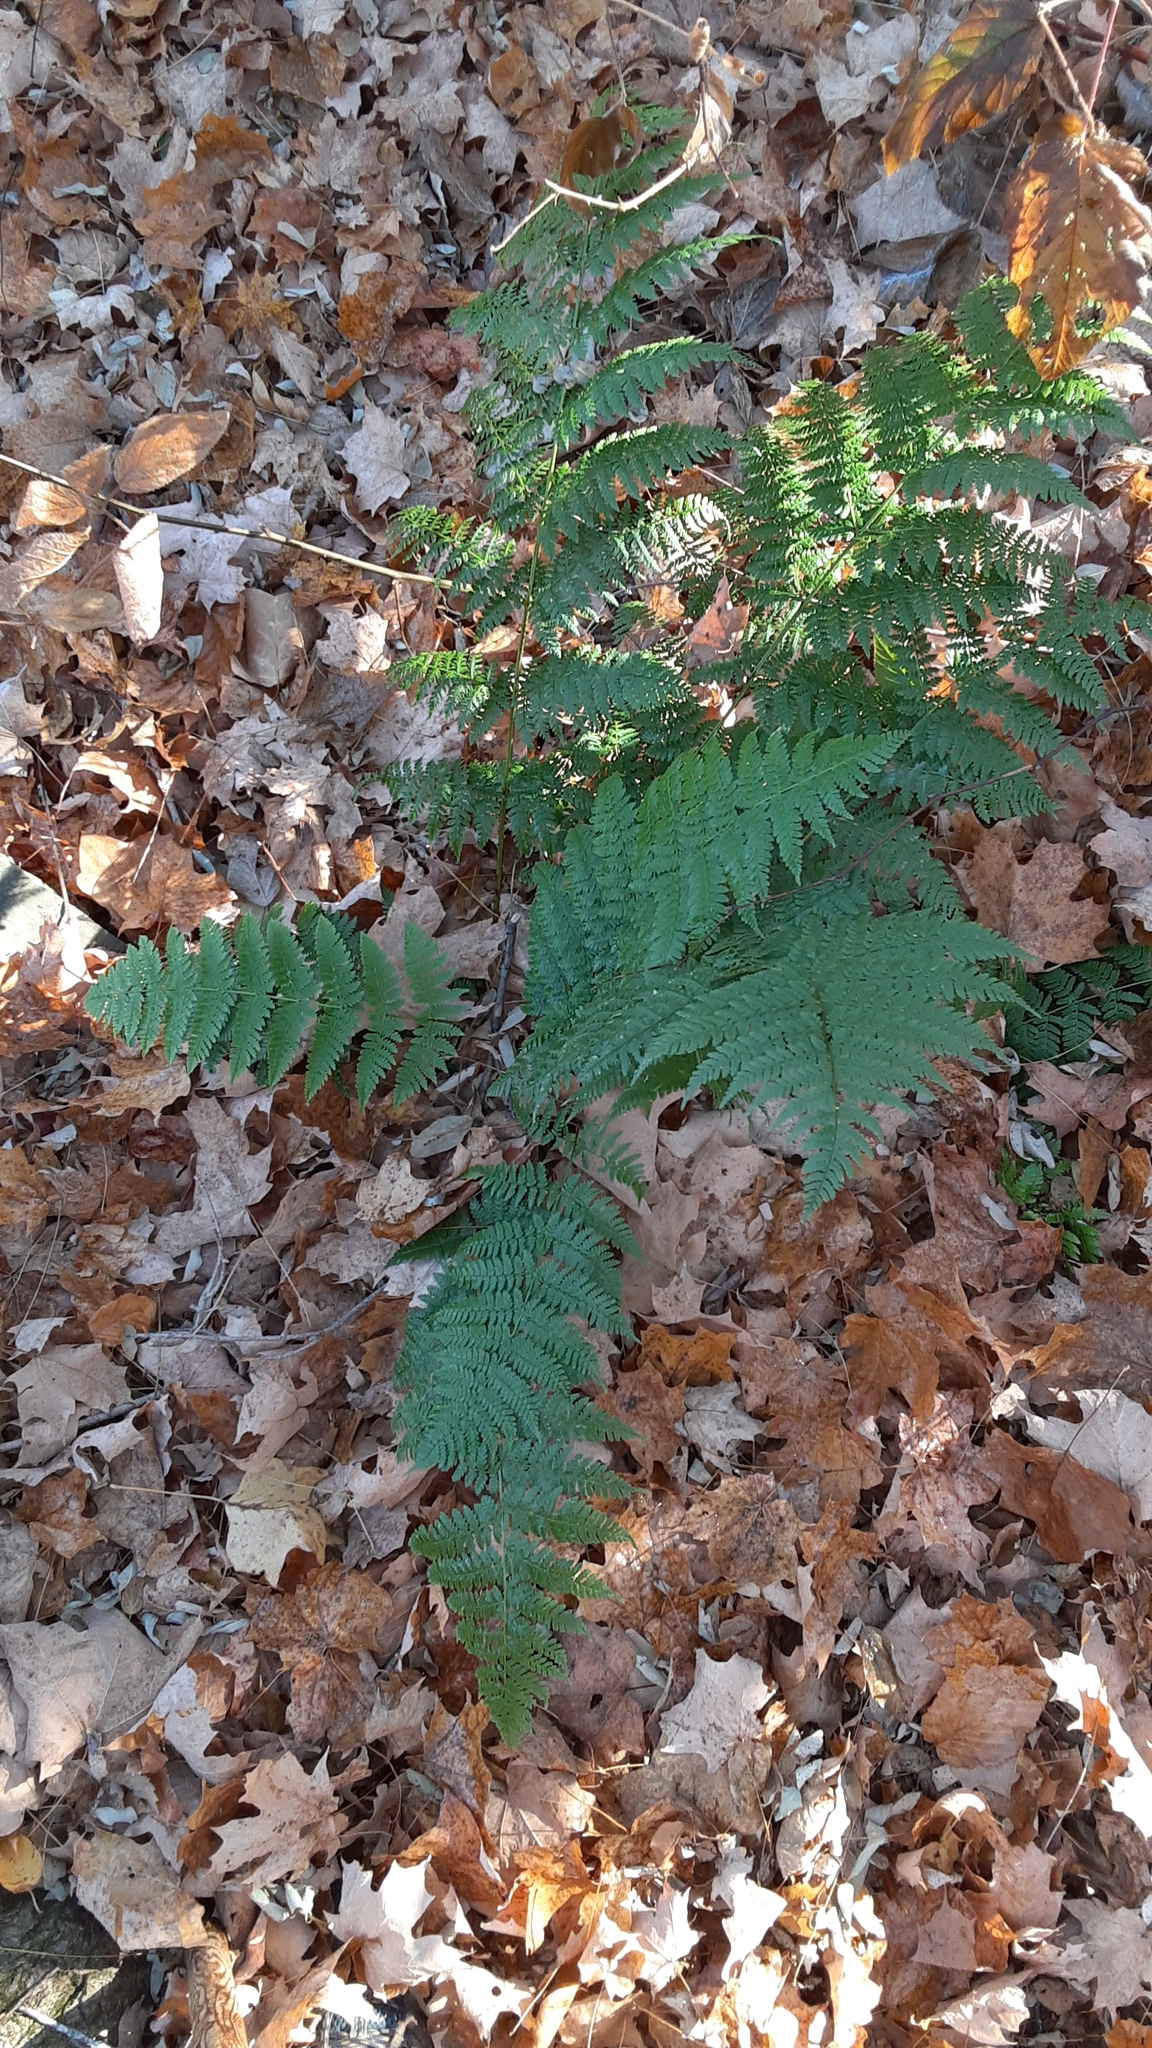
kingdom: Plantae
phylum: Tracheophyta
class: Polypodiopsida
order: Polypodiales
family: Dryopteridaceae
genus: Dryopteris
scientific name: Dryopteris intermedia
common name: Evergreen wood fern
